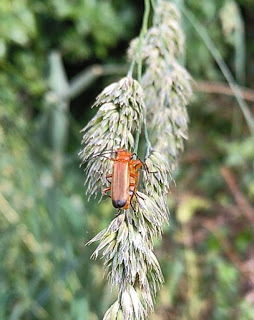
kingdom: Animalia
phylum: Arthropoda
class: Insecta
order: Coleoptera
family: Cantharidae
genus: Rhagonycha
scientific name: Rhagonycha fulva
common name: Common red soldier beetle
